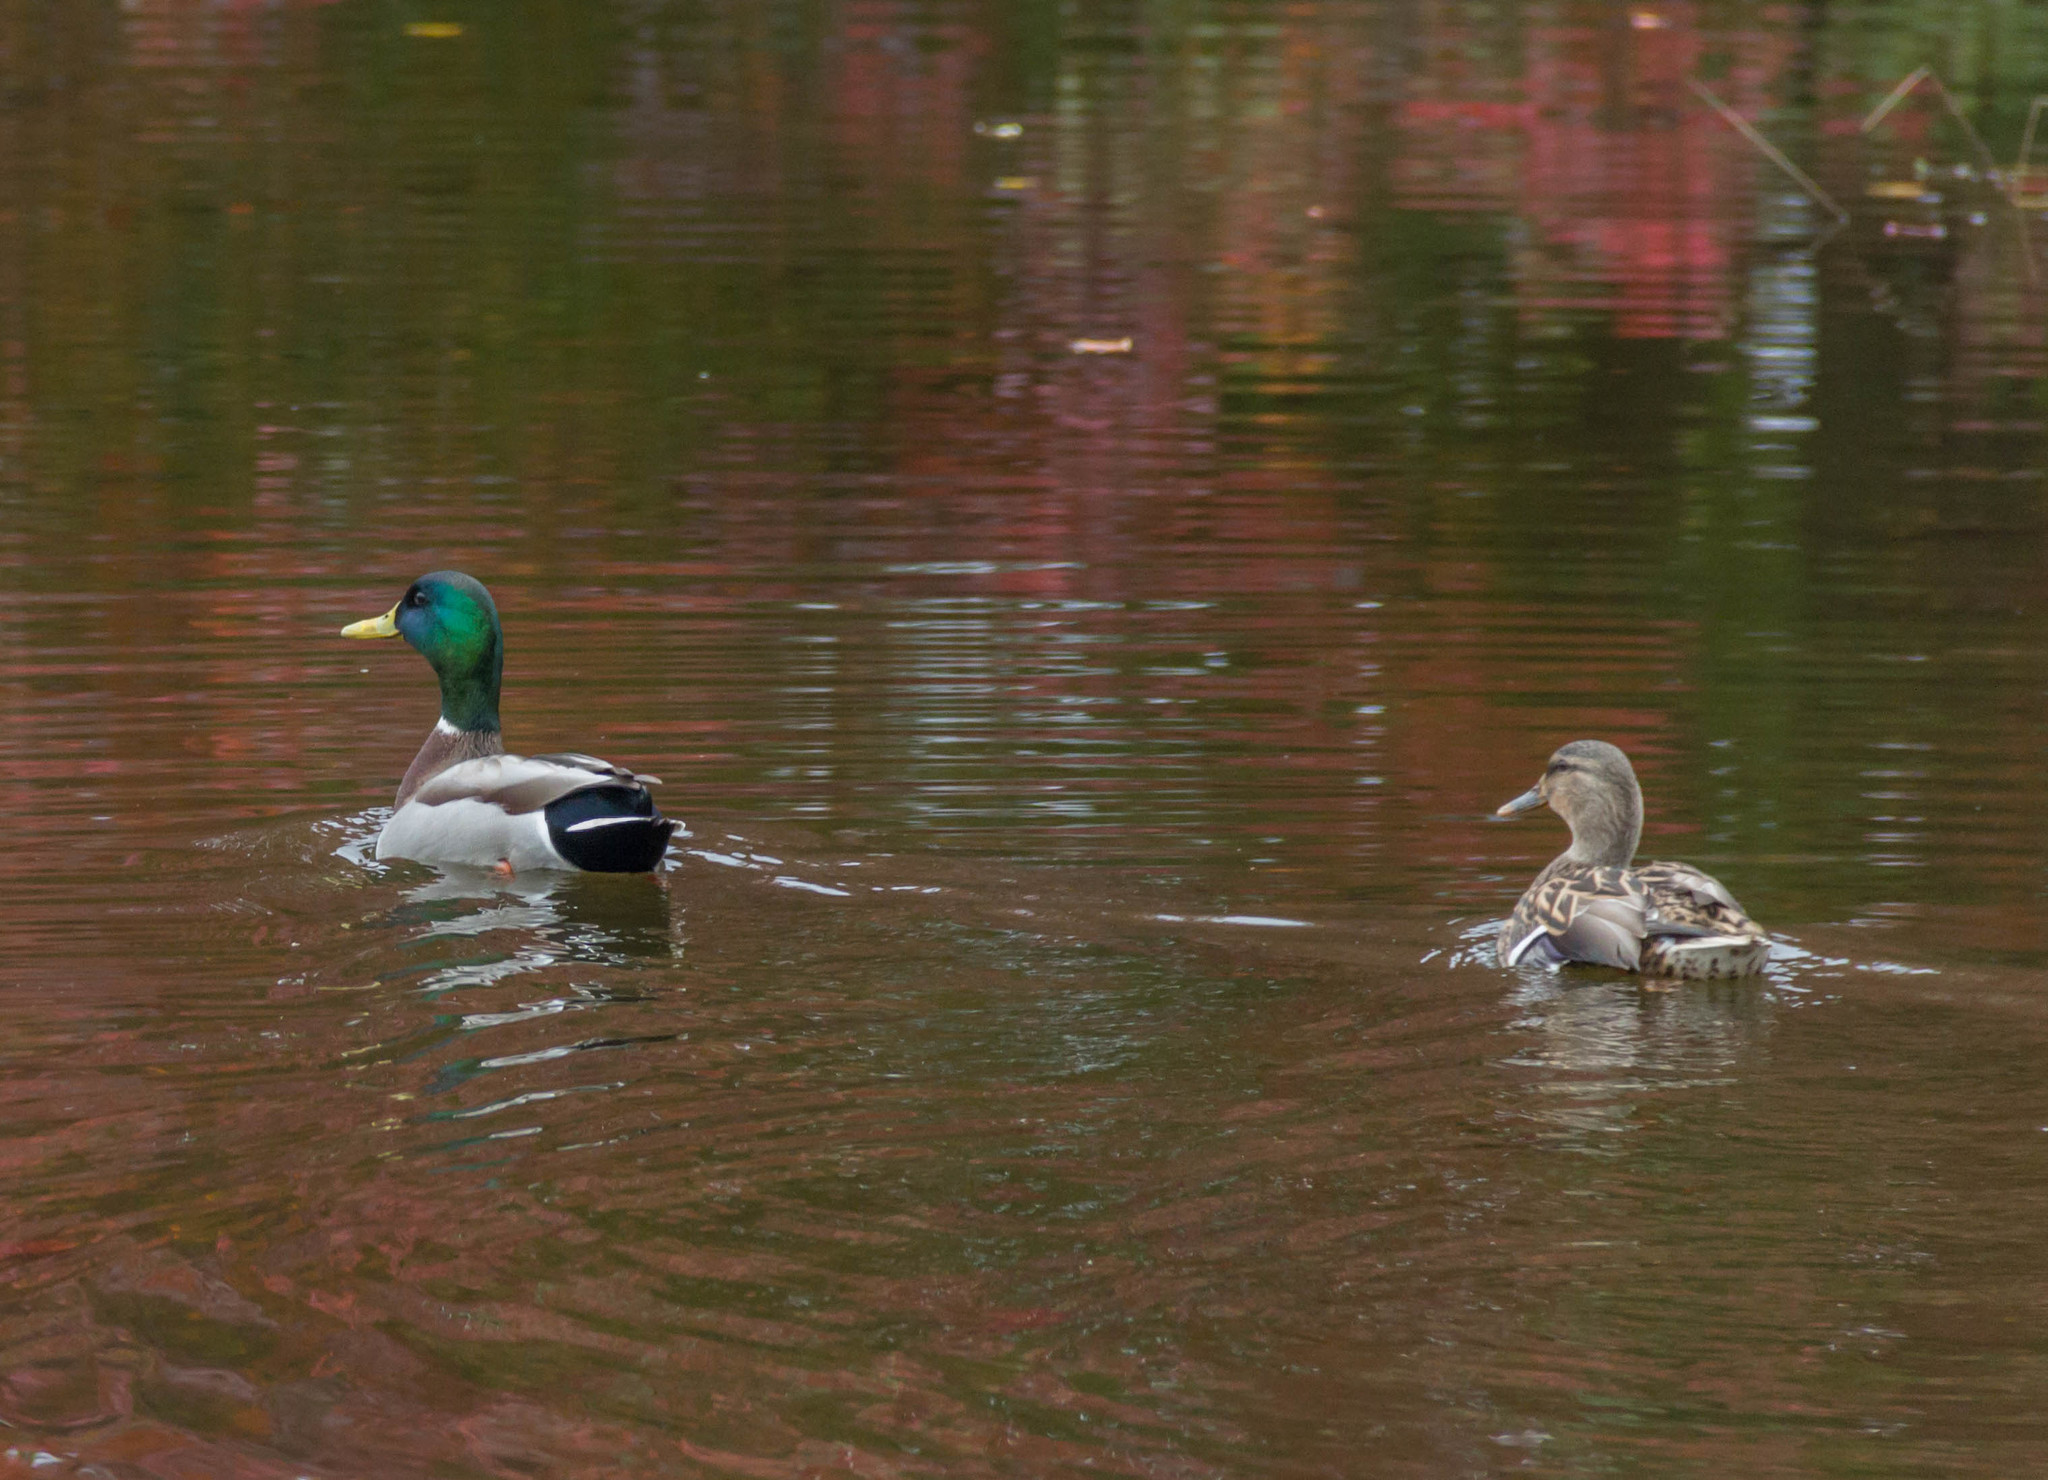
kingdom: Animalia
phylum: Chordata
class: Aves
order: Anseriformes
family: Anatidae
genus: Anas
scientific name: Anas platyrhynchos
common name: Mallard
